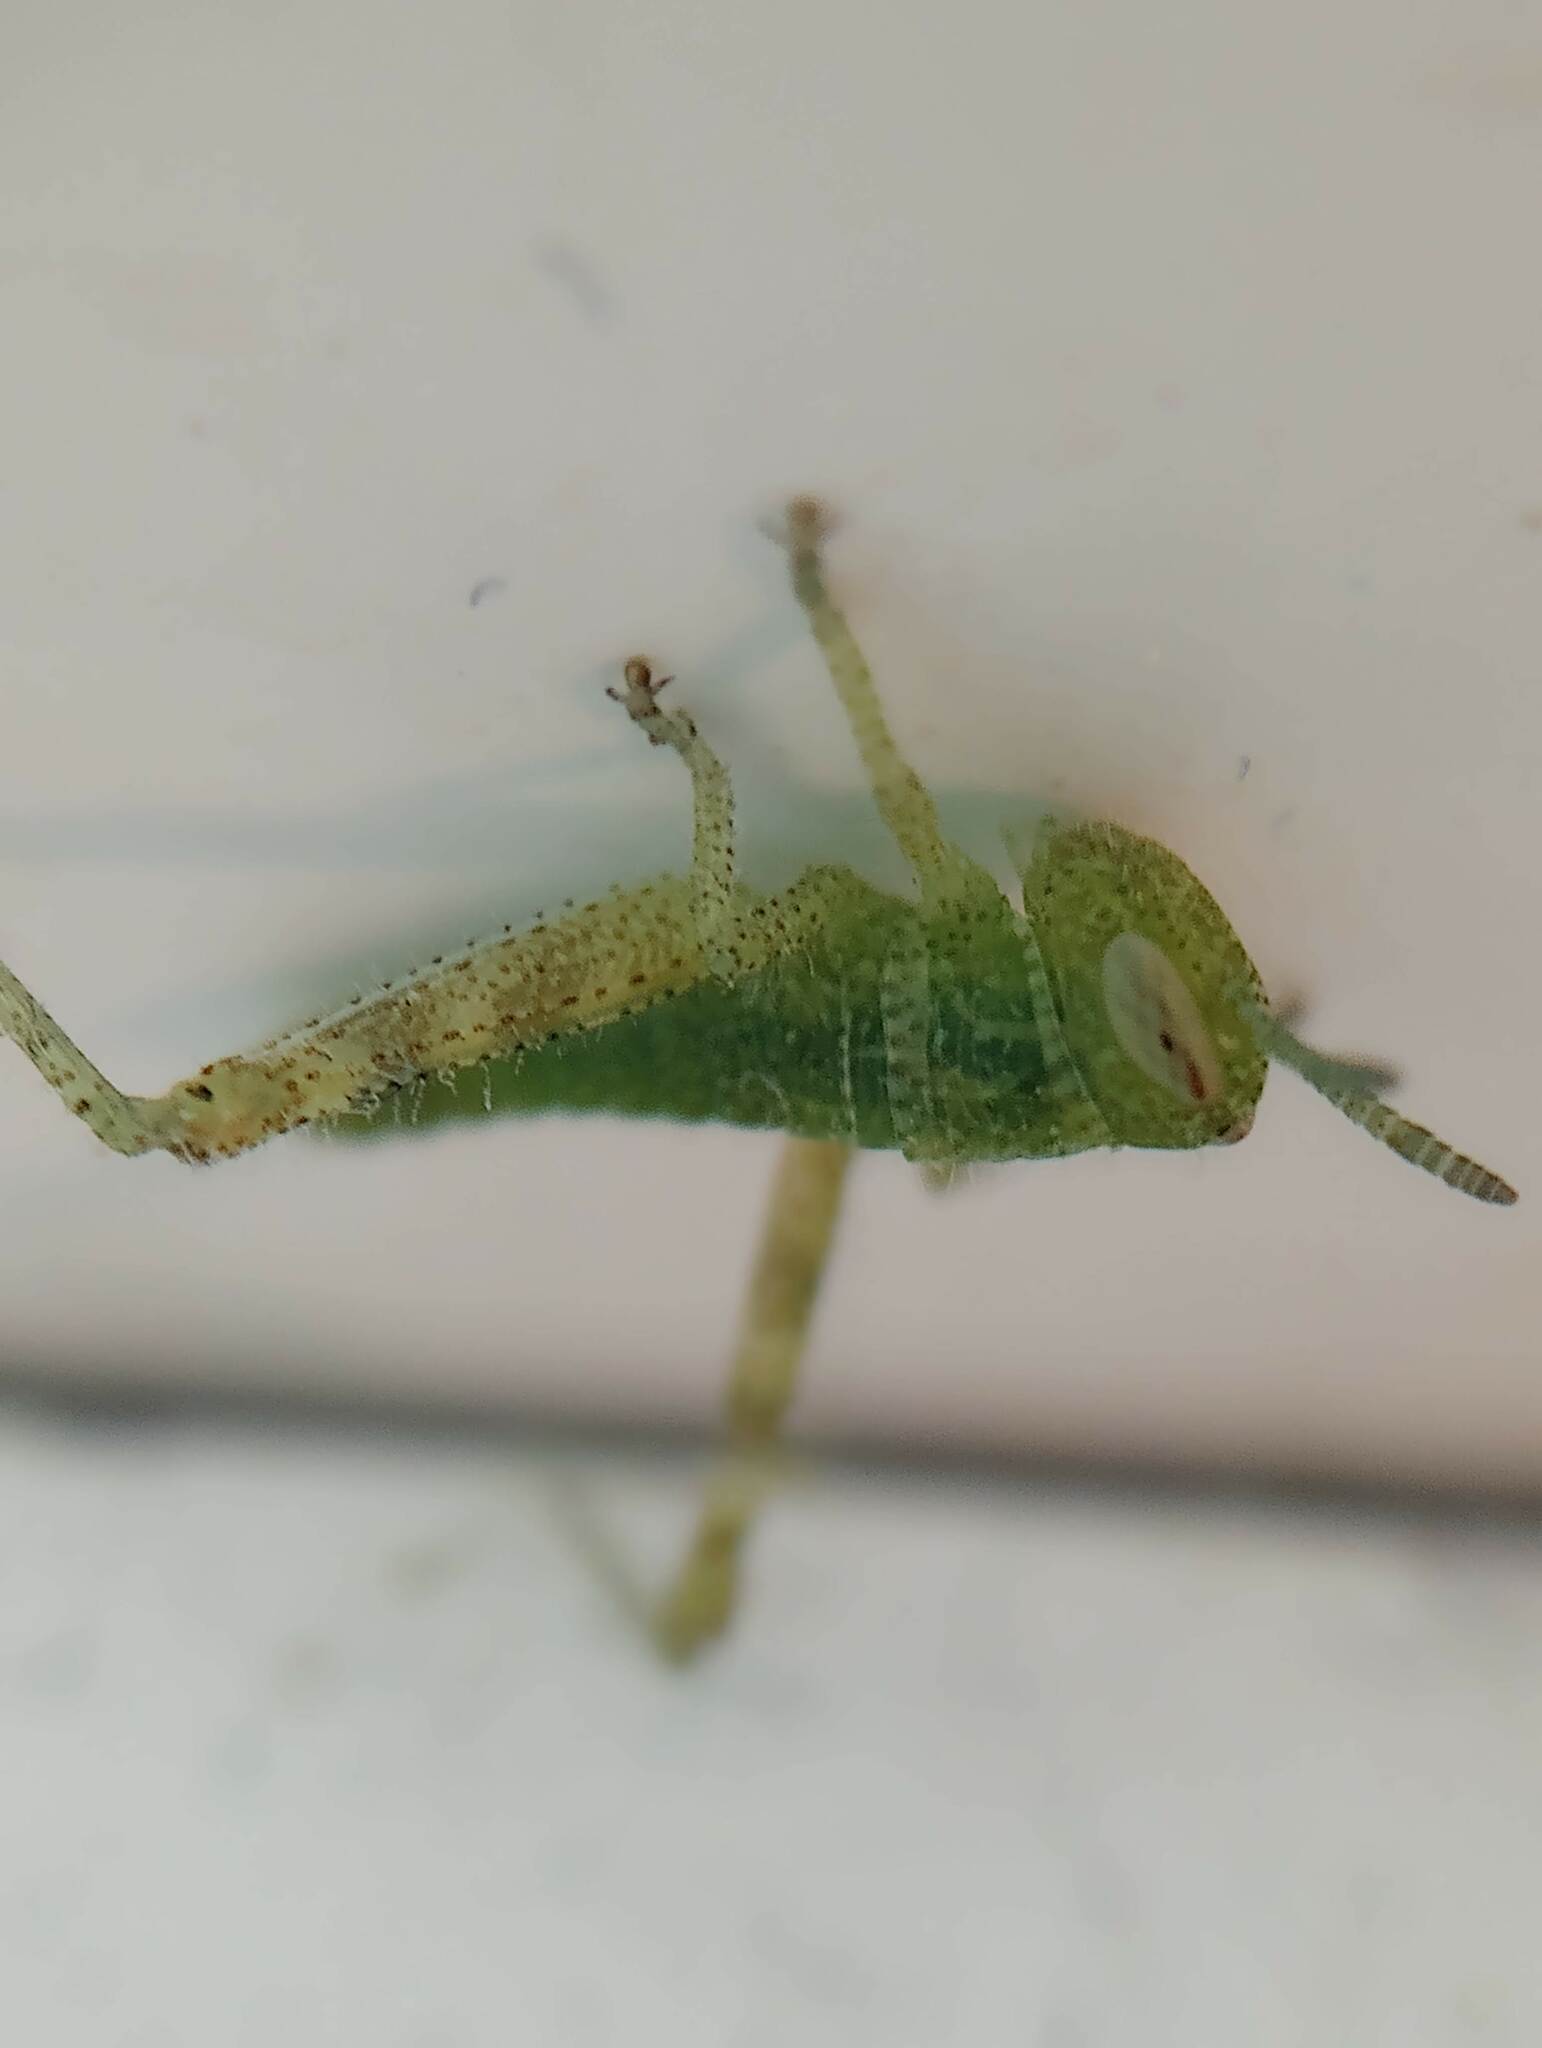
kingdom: Animalia
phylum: Arthropoda
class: Insecta
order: Orthoptera
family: Acrididae
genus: Schistocerca
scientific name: Schistocerca nitens
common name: Vagrant grasshopper
